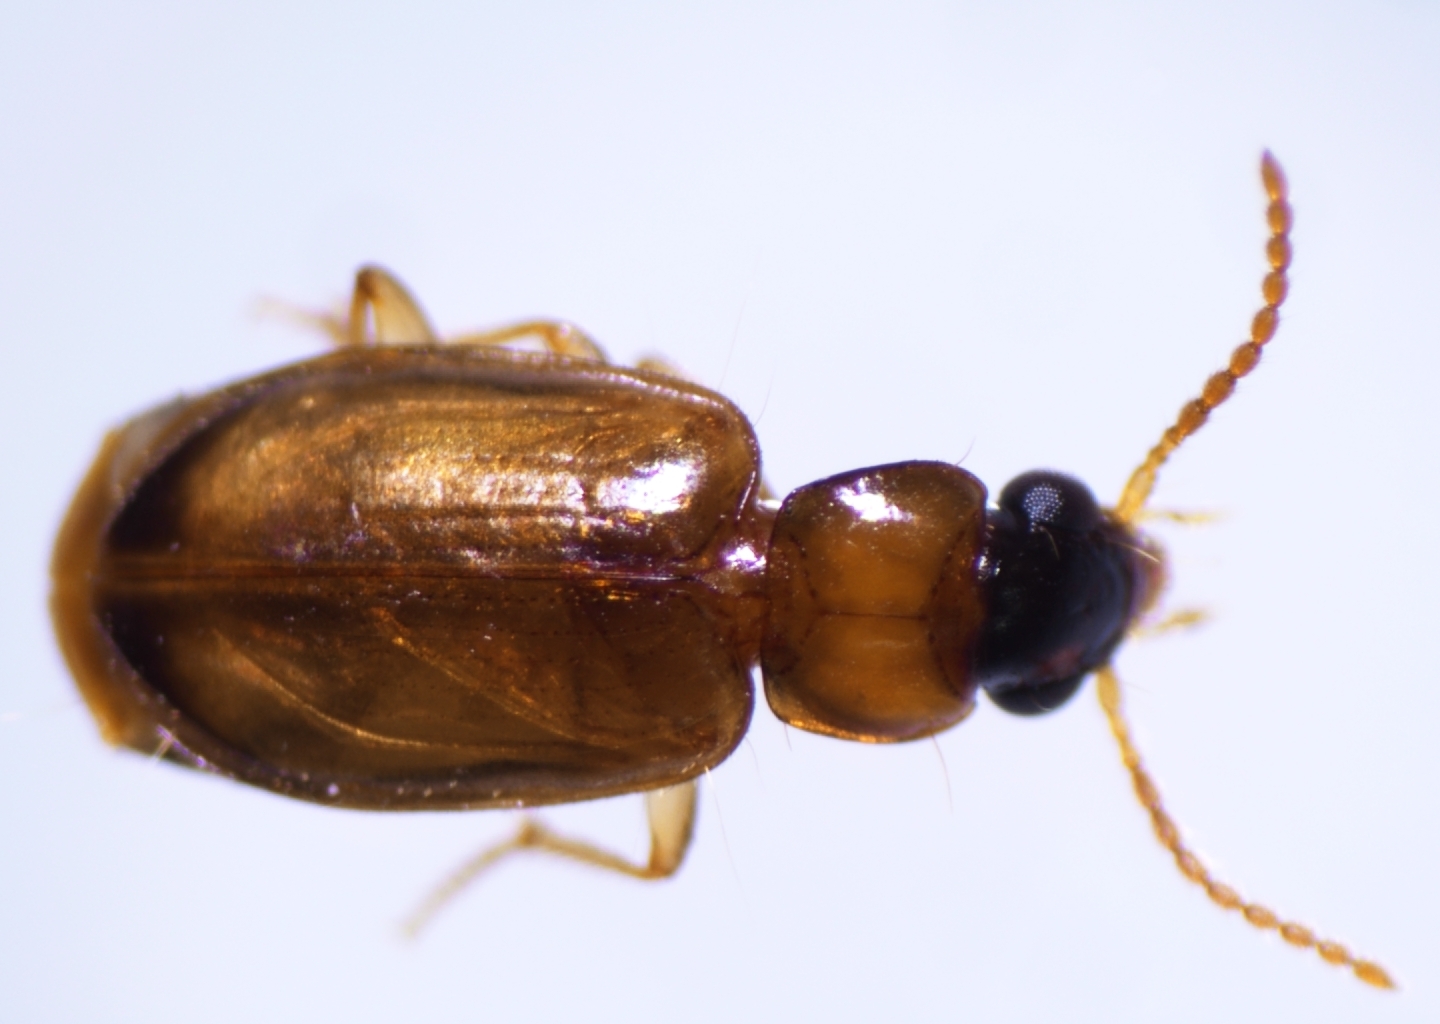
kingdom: Animalia
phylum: Arthropoda
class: Insecta
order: Coleoptera
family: Carabidae
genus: Perigona
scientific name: Perigona nigriceps
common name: Tawny harp ground beetle
